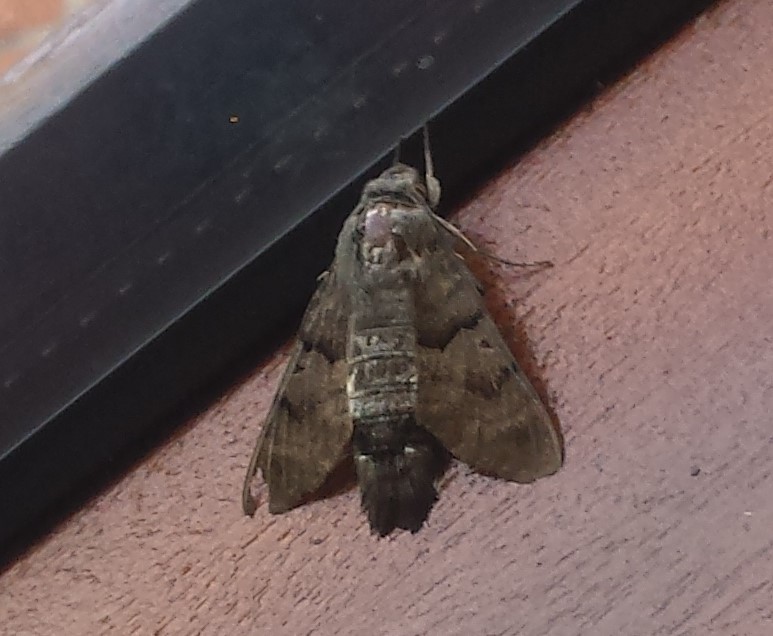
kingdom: Animalia
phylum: Arthropoda
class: Insecta
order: Lepidoptera
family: Sphingidae
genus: Macroglossum
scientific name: Macroglossum stellatarum
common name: Humming-bird hawk-moth
